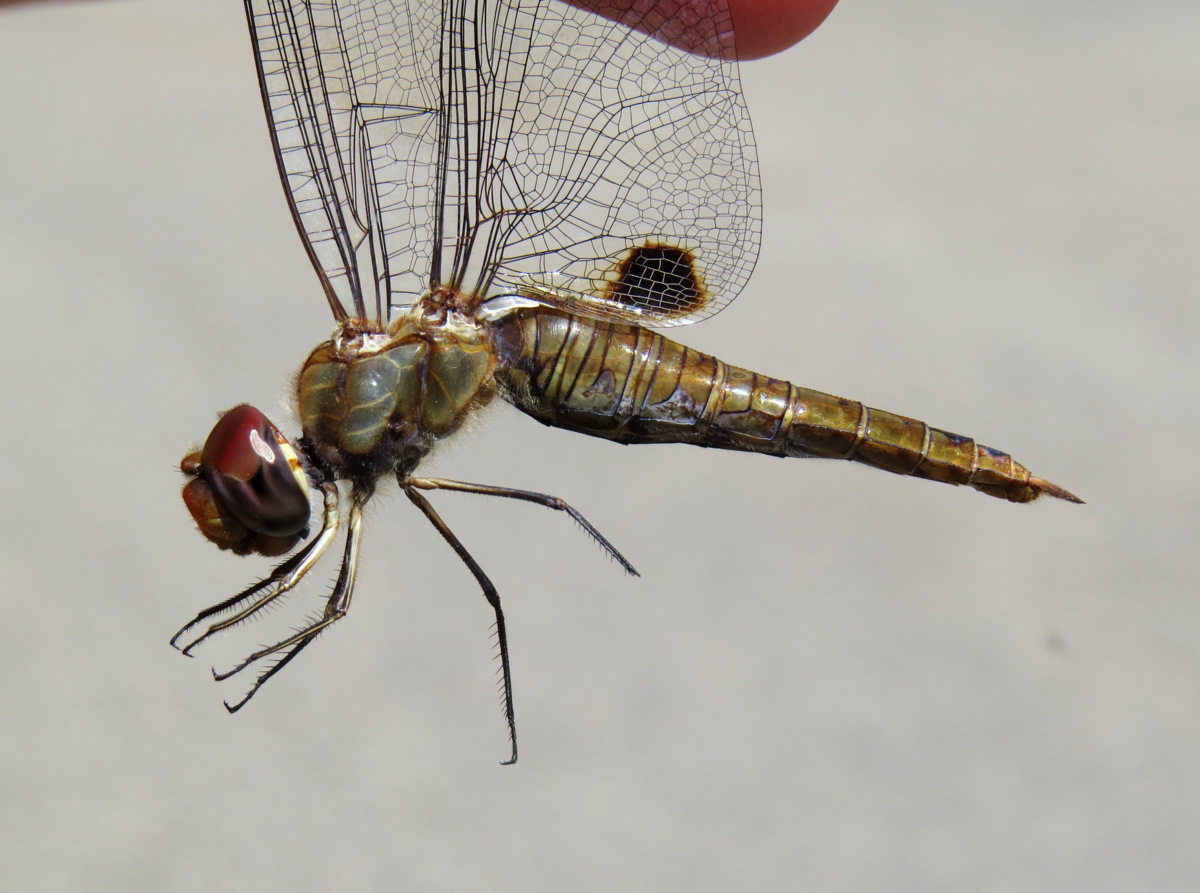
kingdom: Animalia
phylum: Arthropoda
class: Insecta
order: Odonata
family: Libellulidae
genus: Pantala
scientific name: Pantala hymenaea
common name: Spot-winged glider
